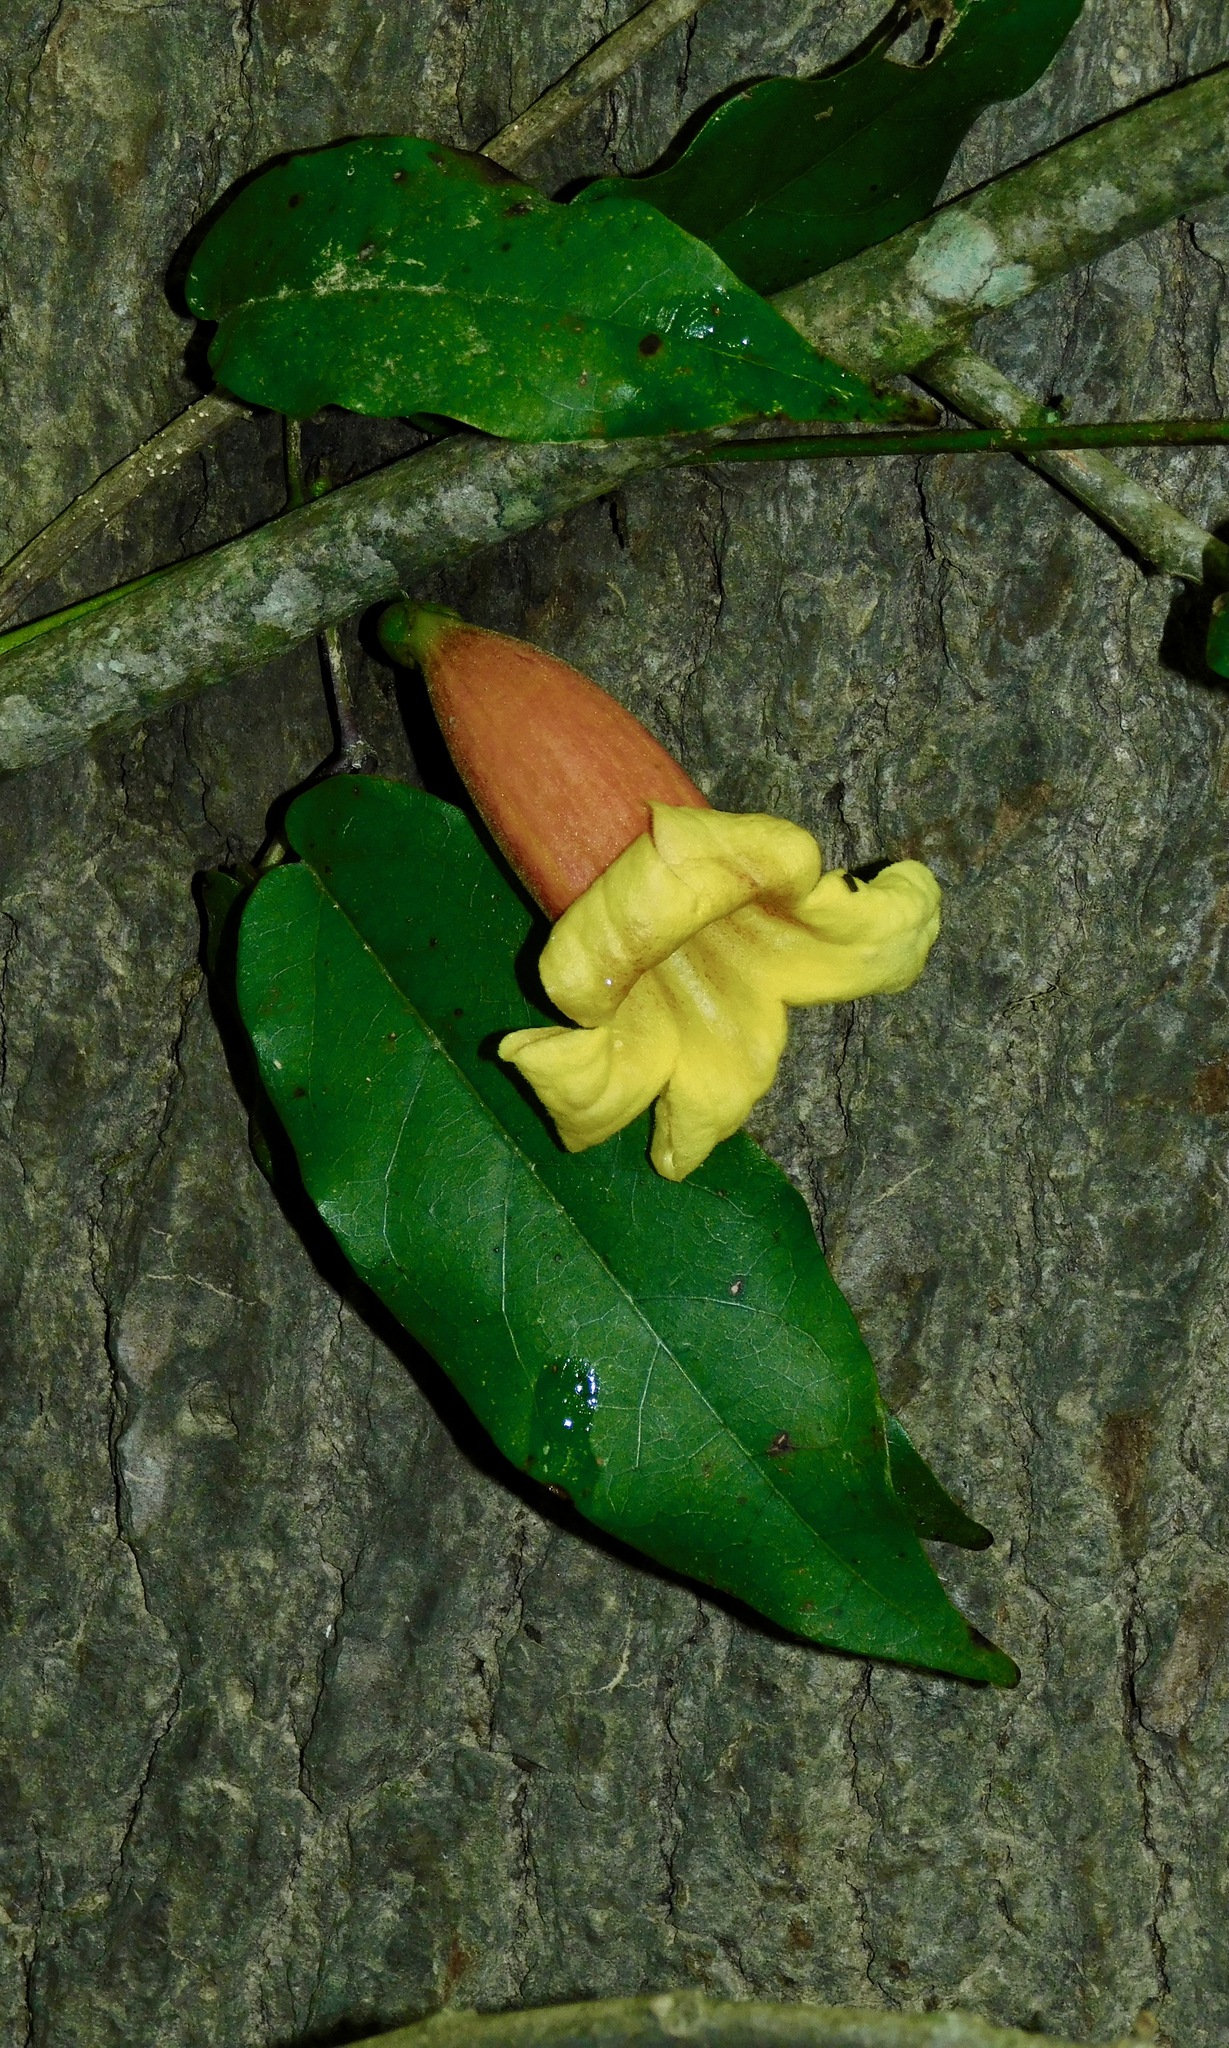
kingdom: Plantae
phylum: Tracheophyta
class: Magnoliopsida
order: Lamiales
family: Bignoniaceae
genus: Bignonia
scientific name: Bignonia capreolata
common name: Crossvine
